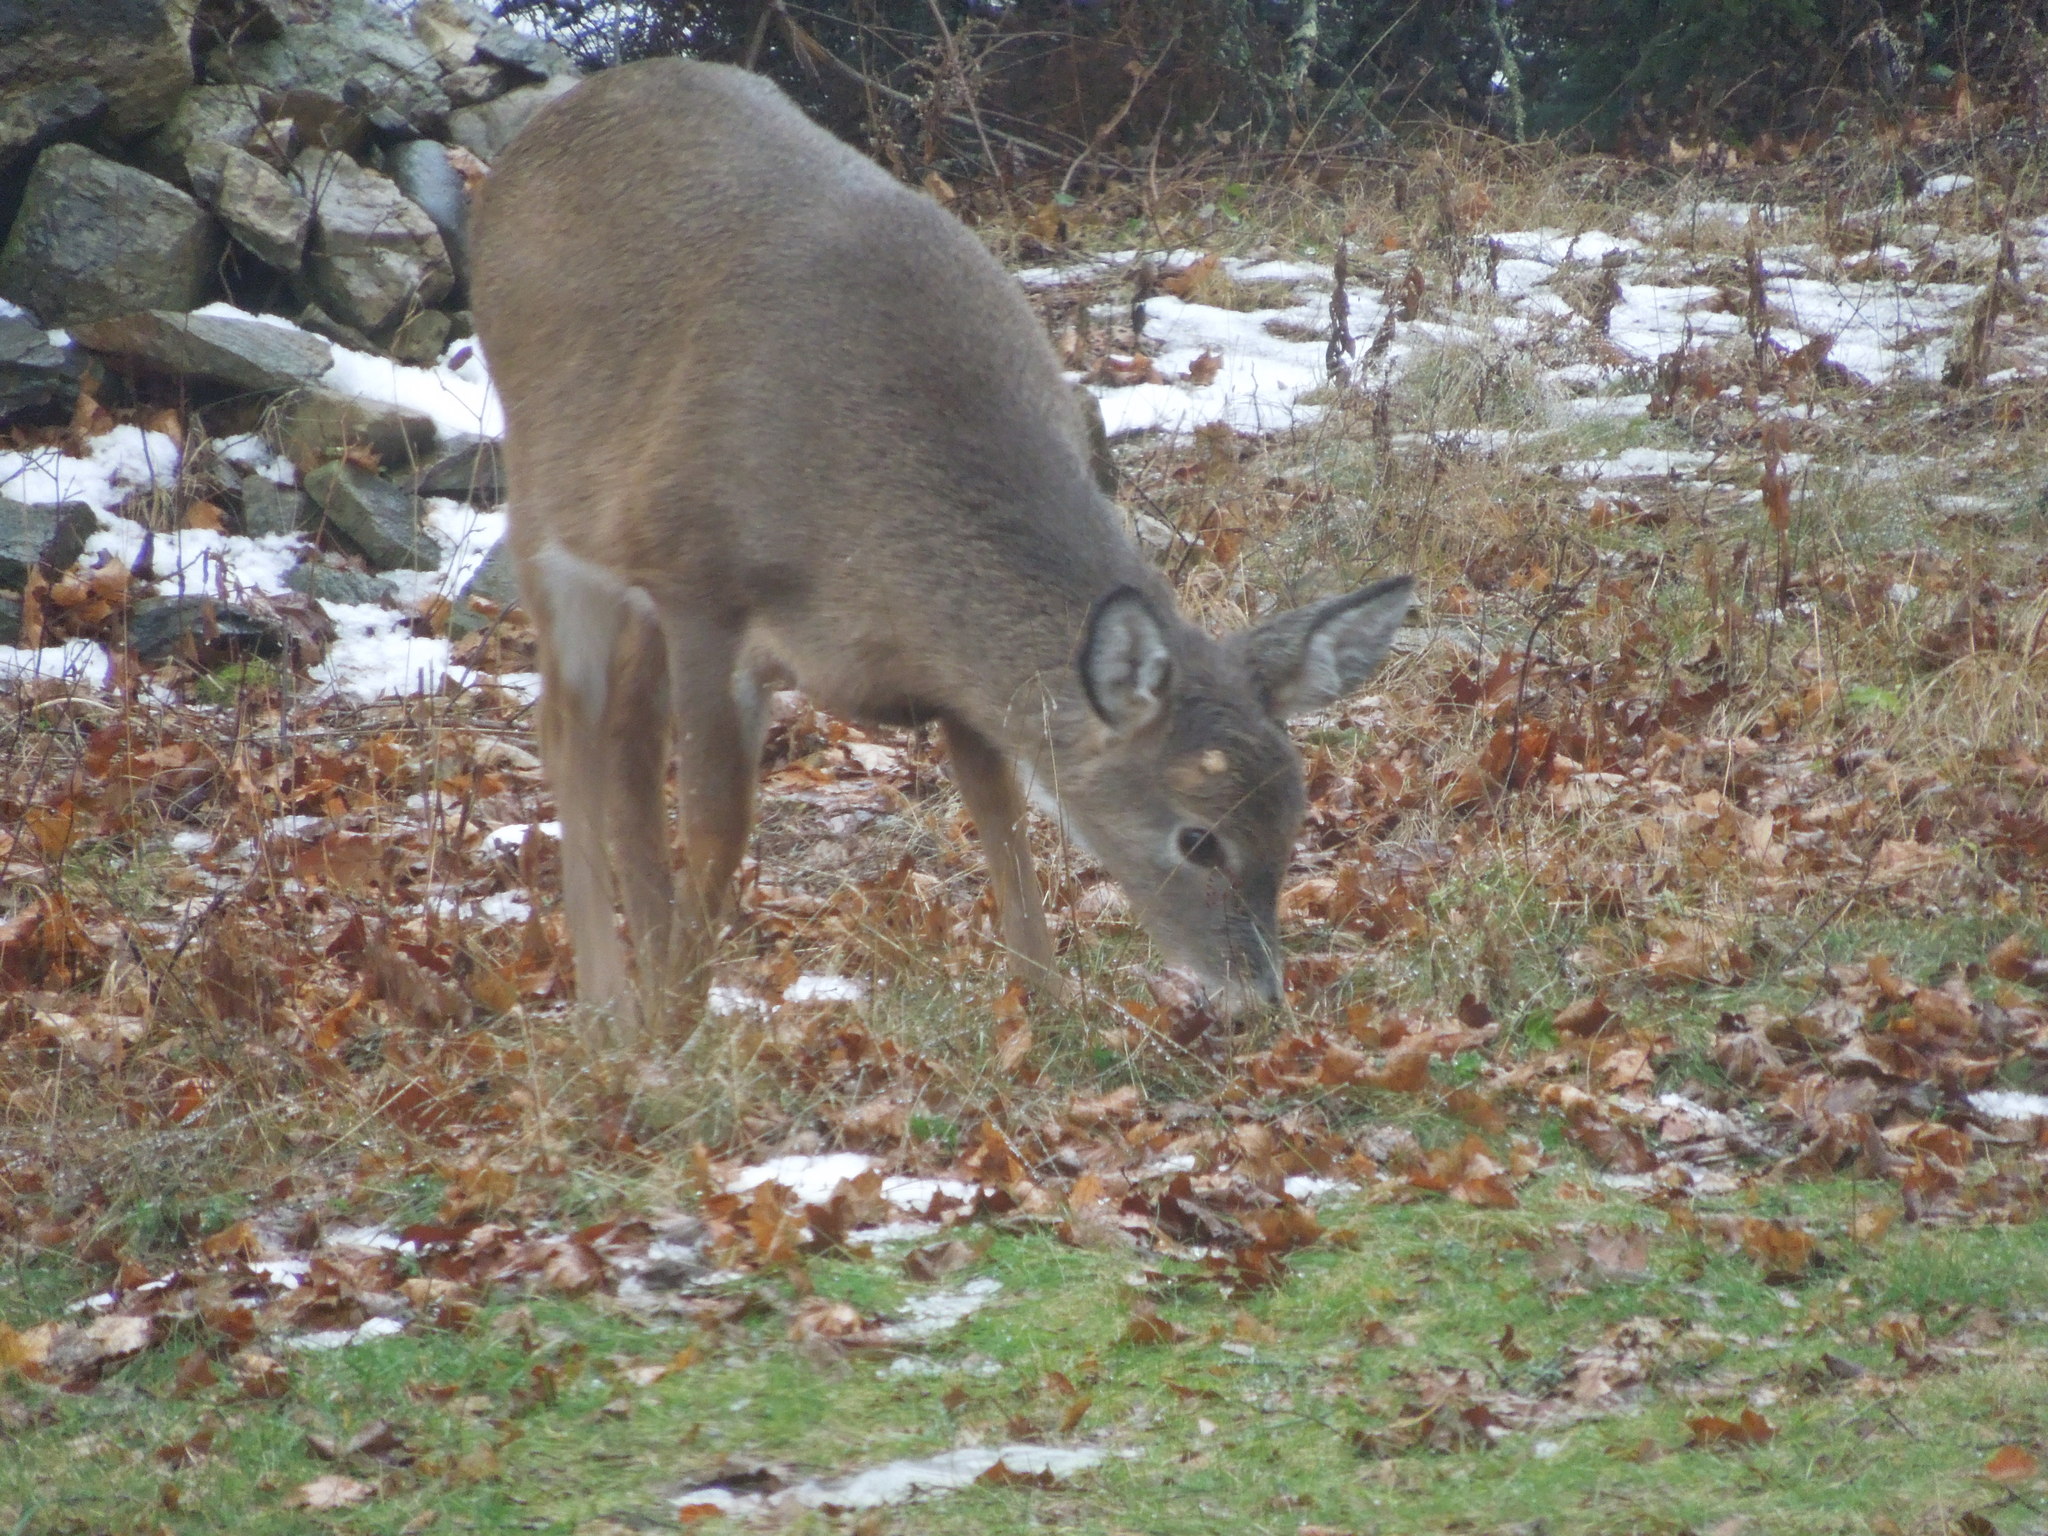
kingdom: Animalia
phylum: Chordata
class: Mammalia
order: Artiodactyla
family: Cervidae
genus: Odocoileus
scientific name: Odocoileus virginianus
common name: White-tailed deer
